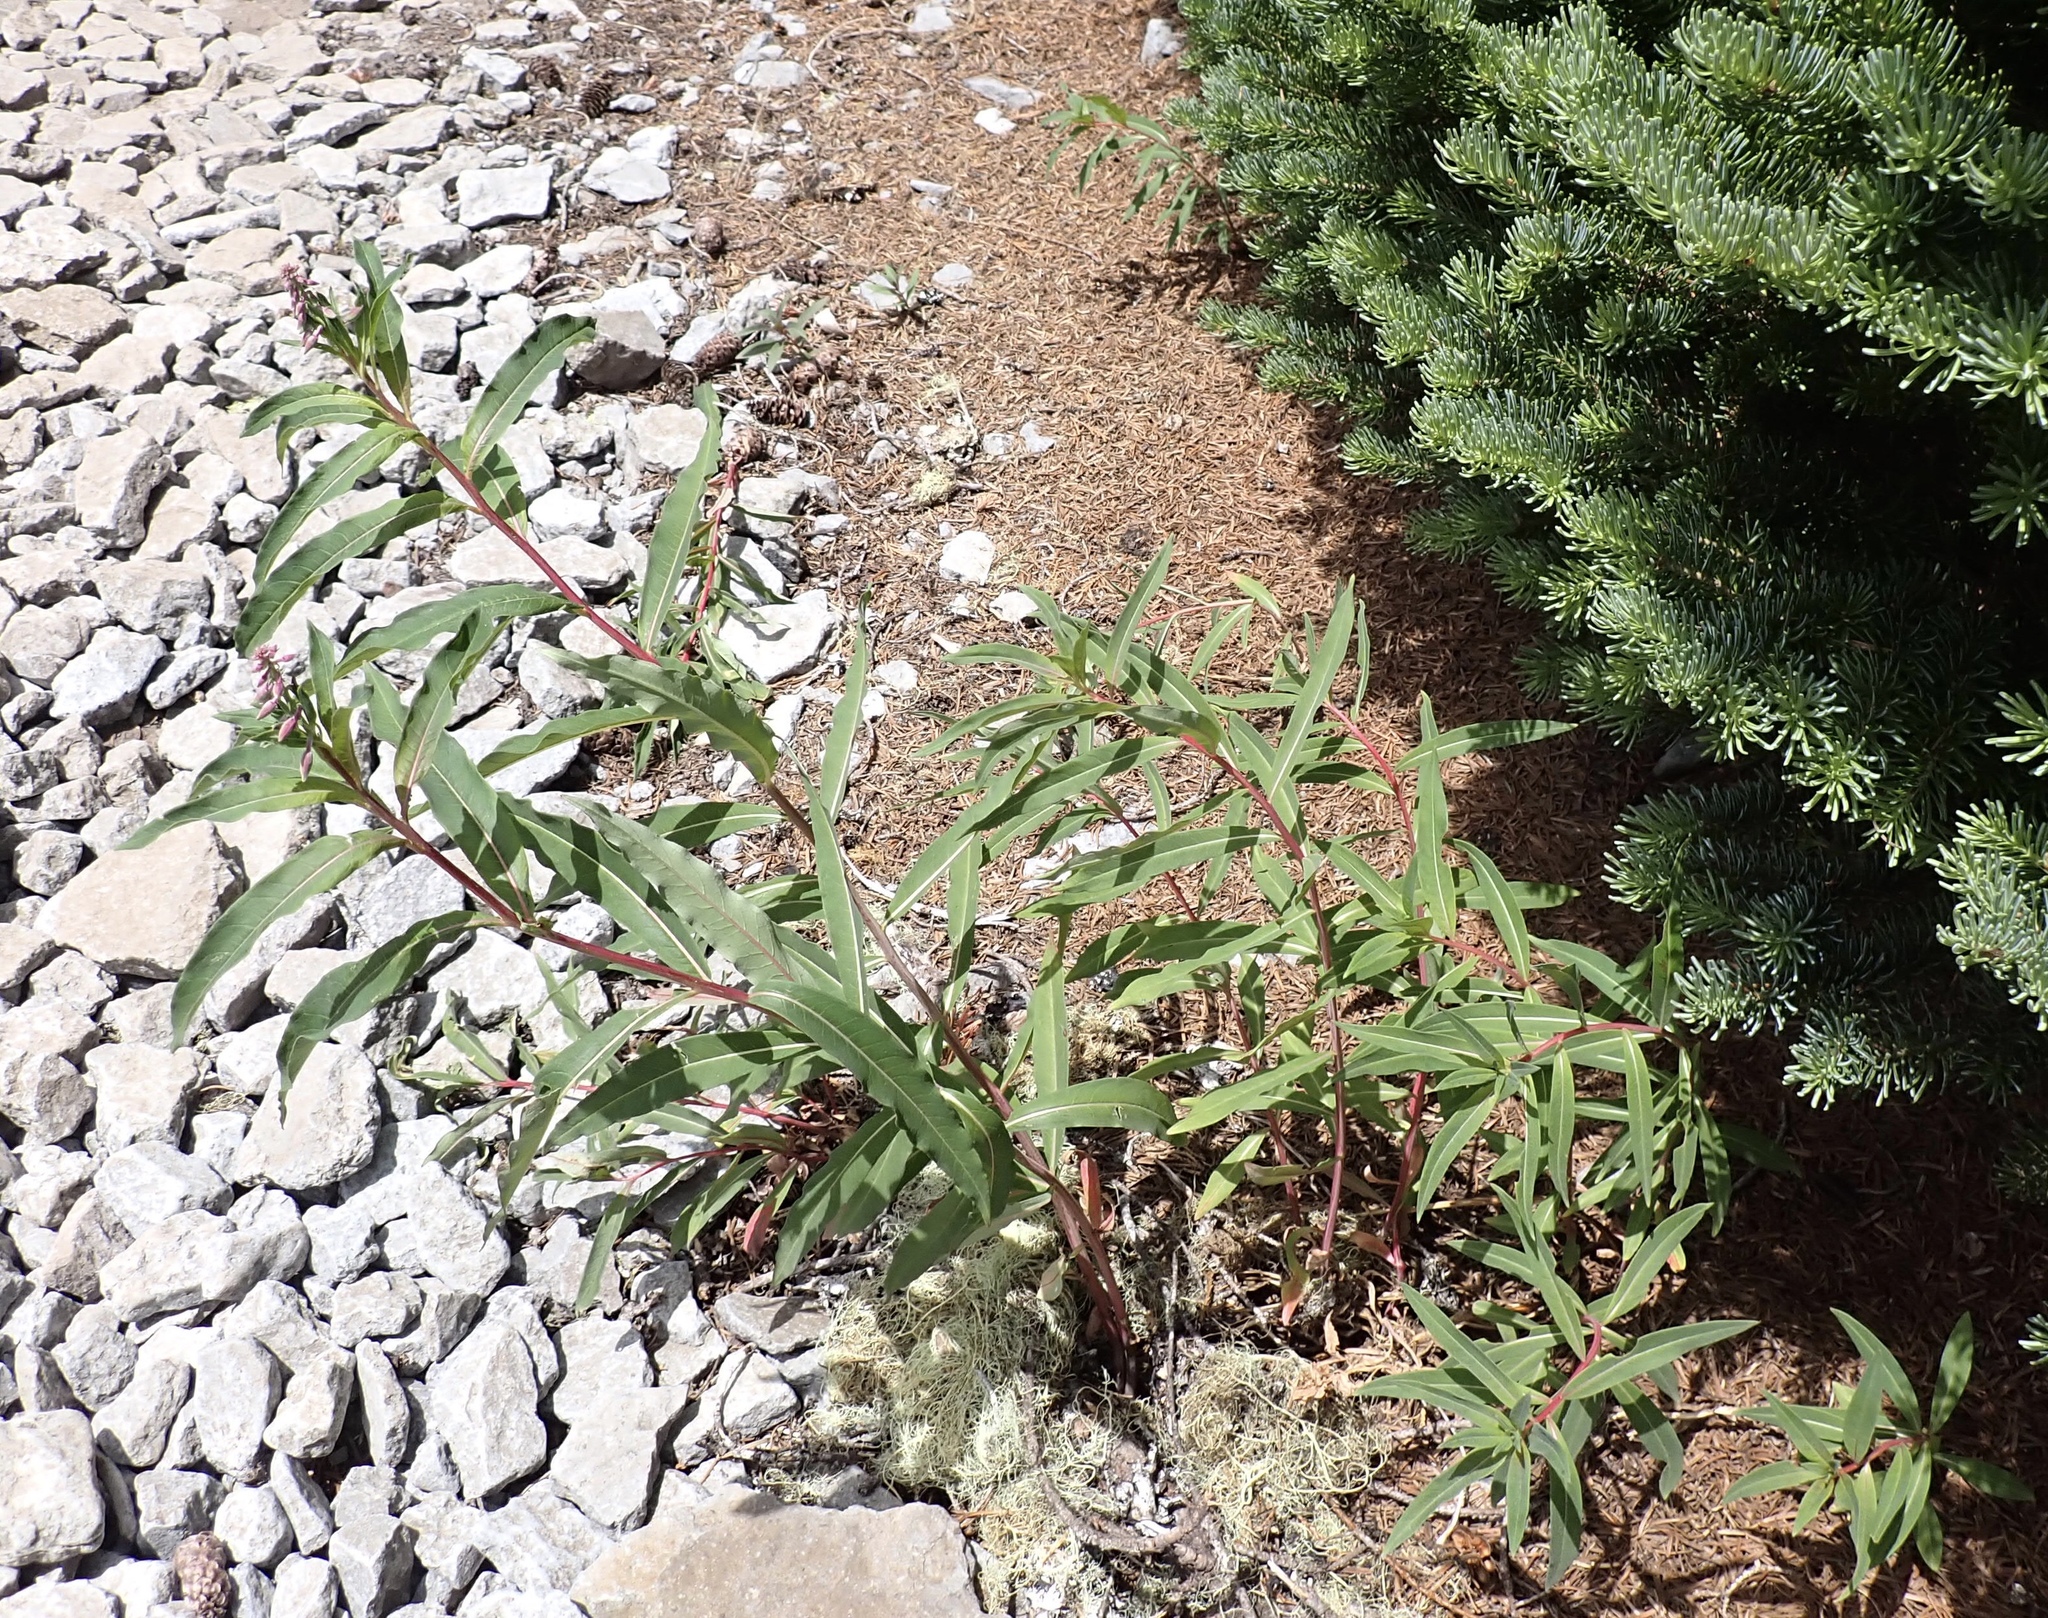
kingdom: Plantae
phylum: Tracheophyta
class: Magnoliopsida
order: Myrtales
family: Onagraceae
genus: Chamaenerion
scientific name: Chamaenerion angustifolium
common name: Fireweed
